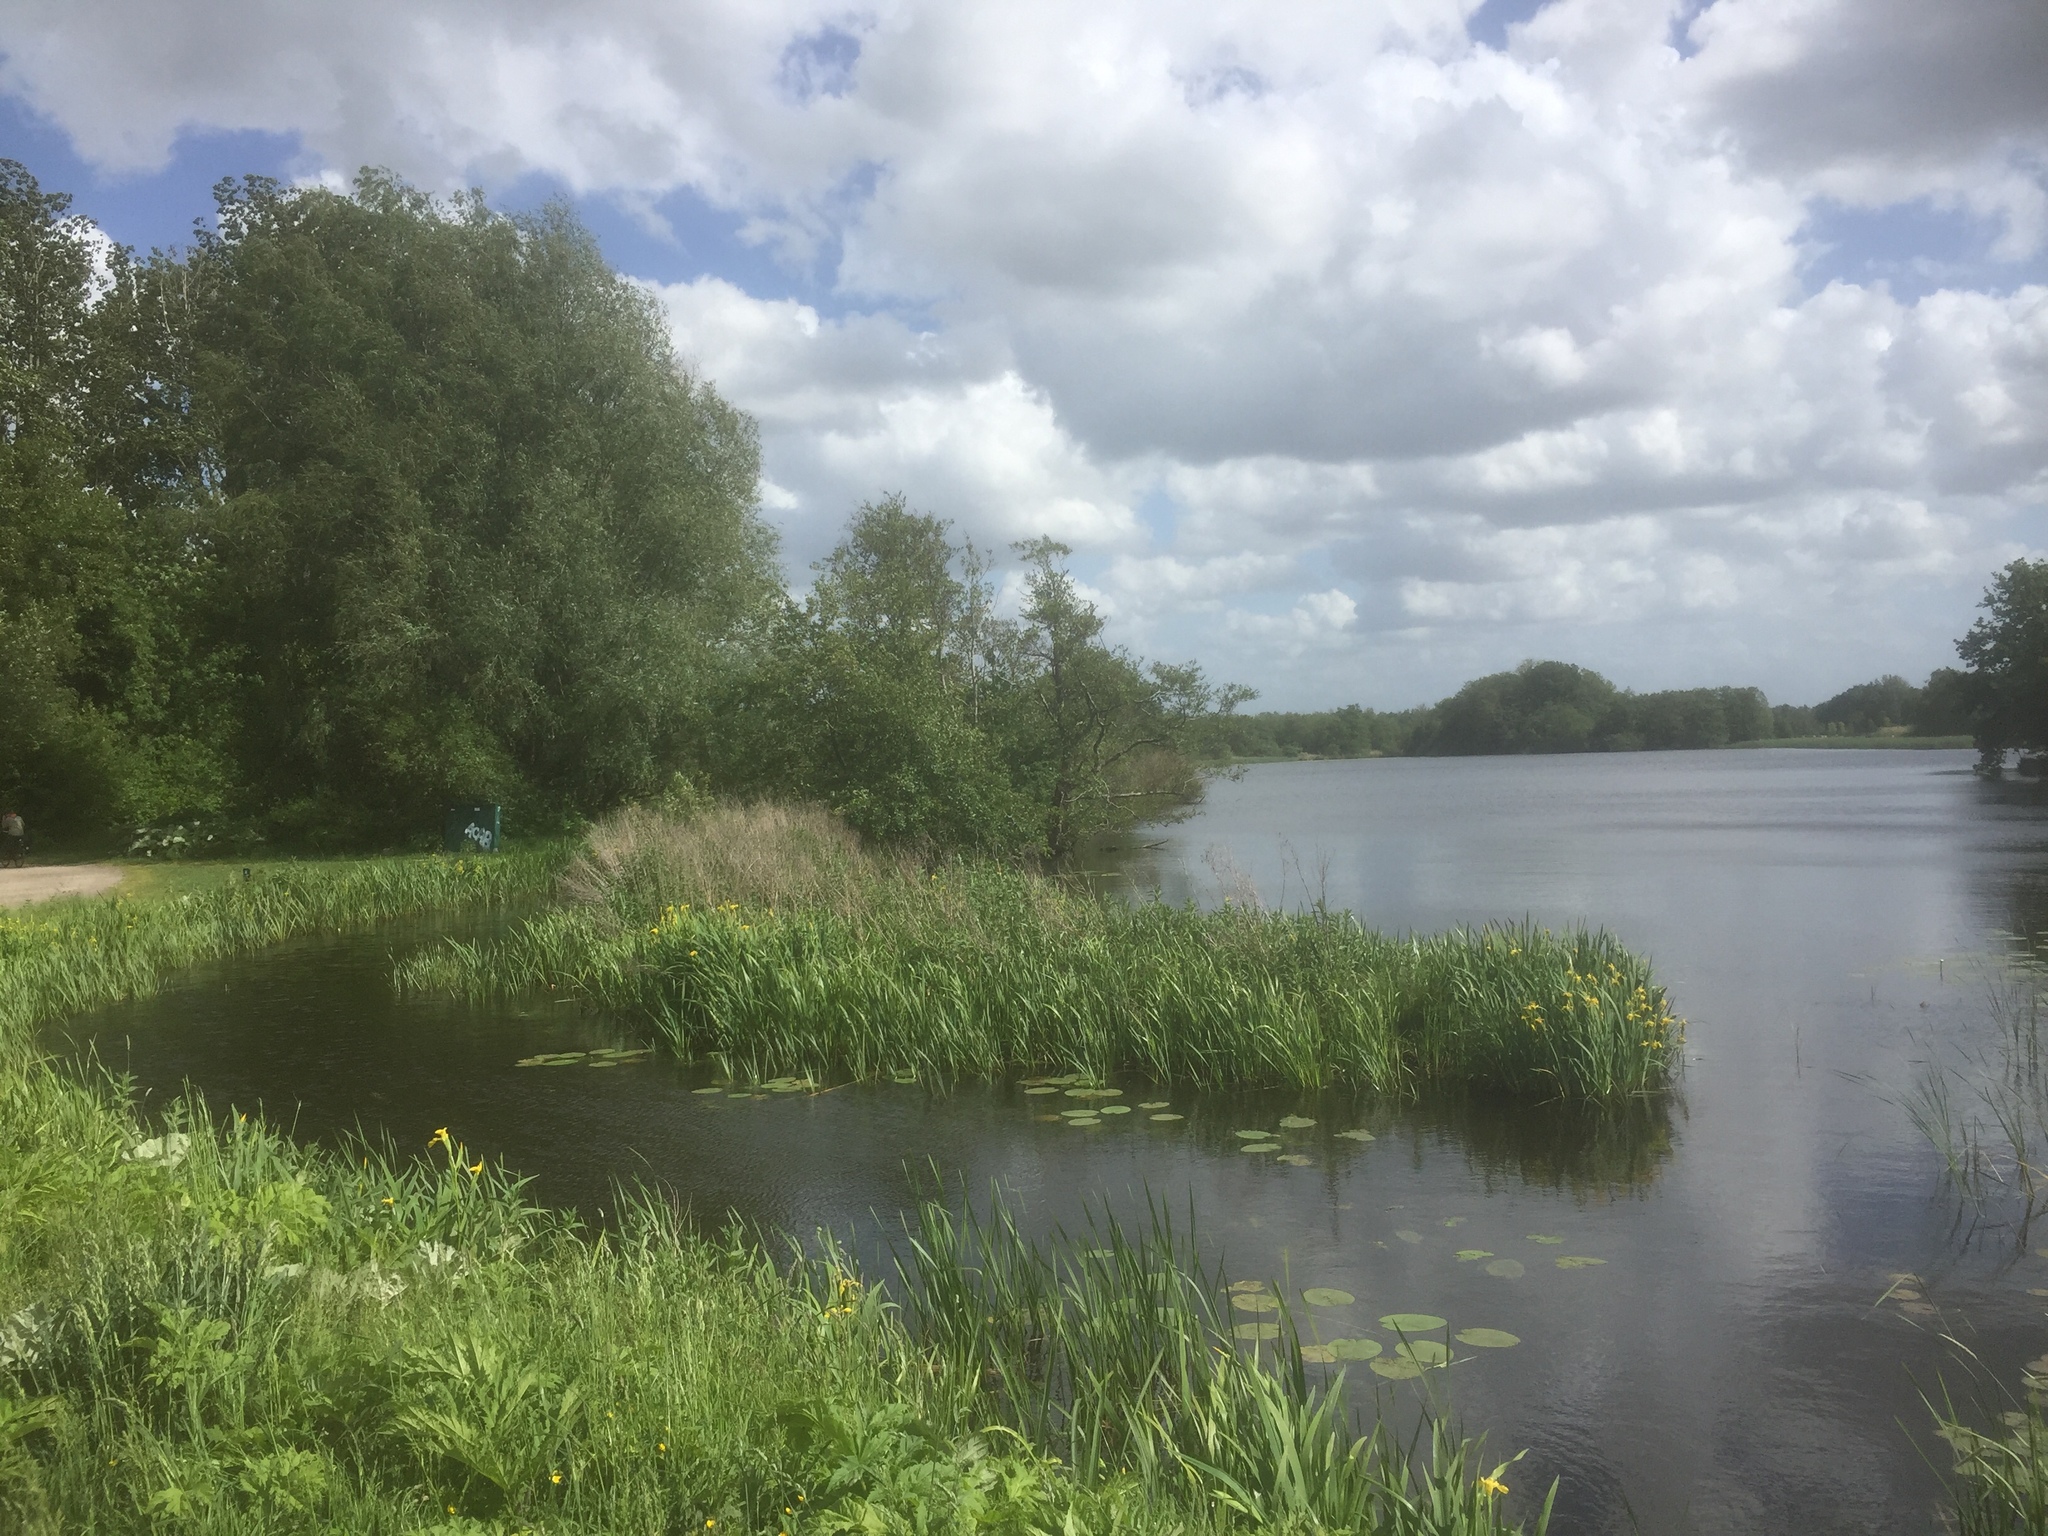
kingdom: Plantae
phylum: Tracheophyta
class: Liliopsida
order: Asparagales
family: Iridaceae
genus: Iris
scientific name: Iris pseudacorus
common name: Yellow flag
